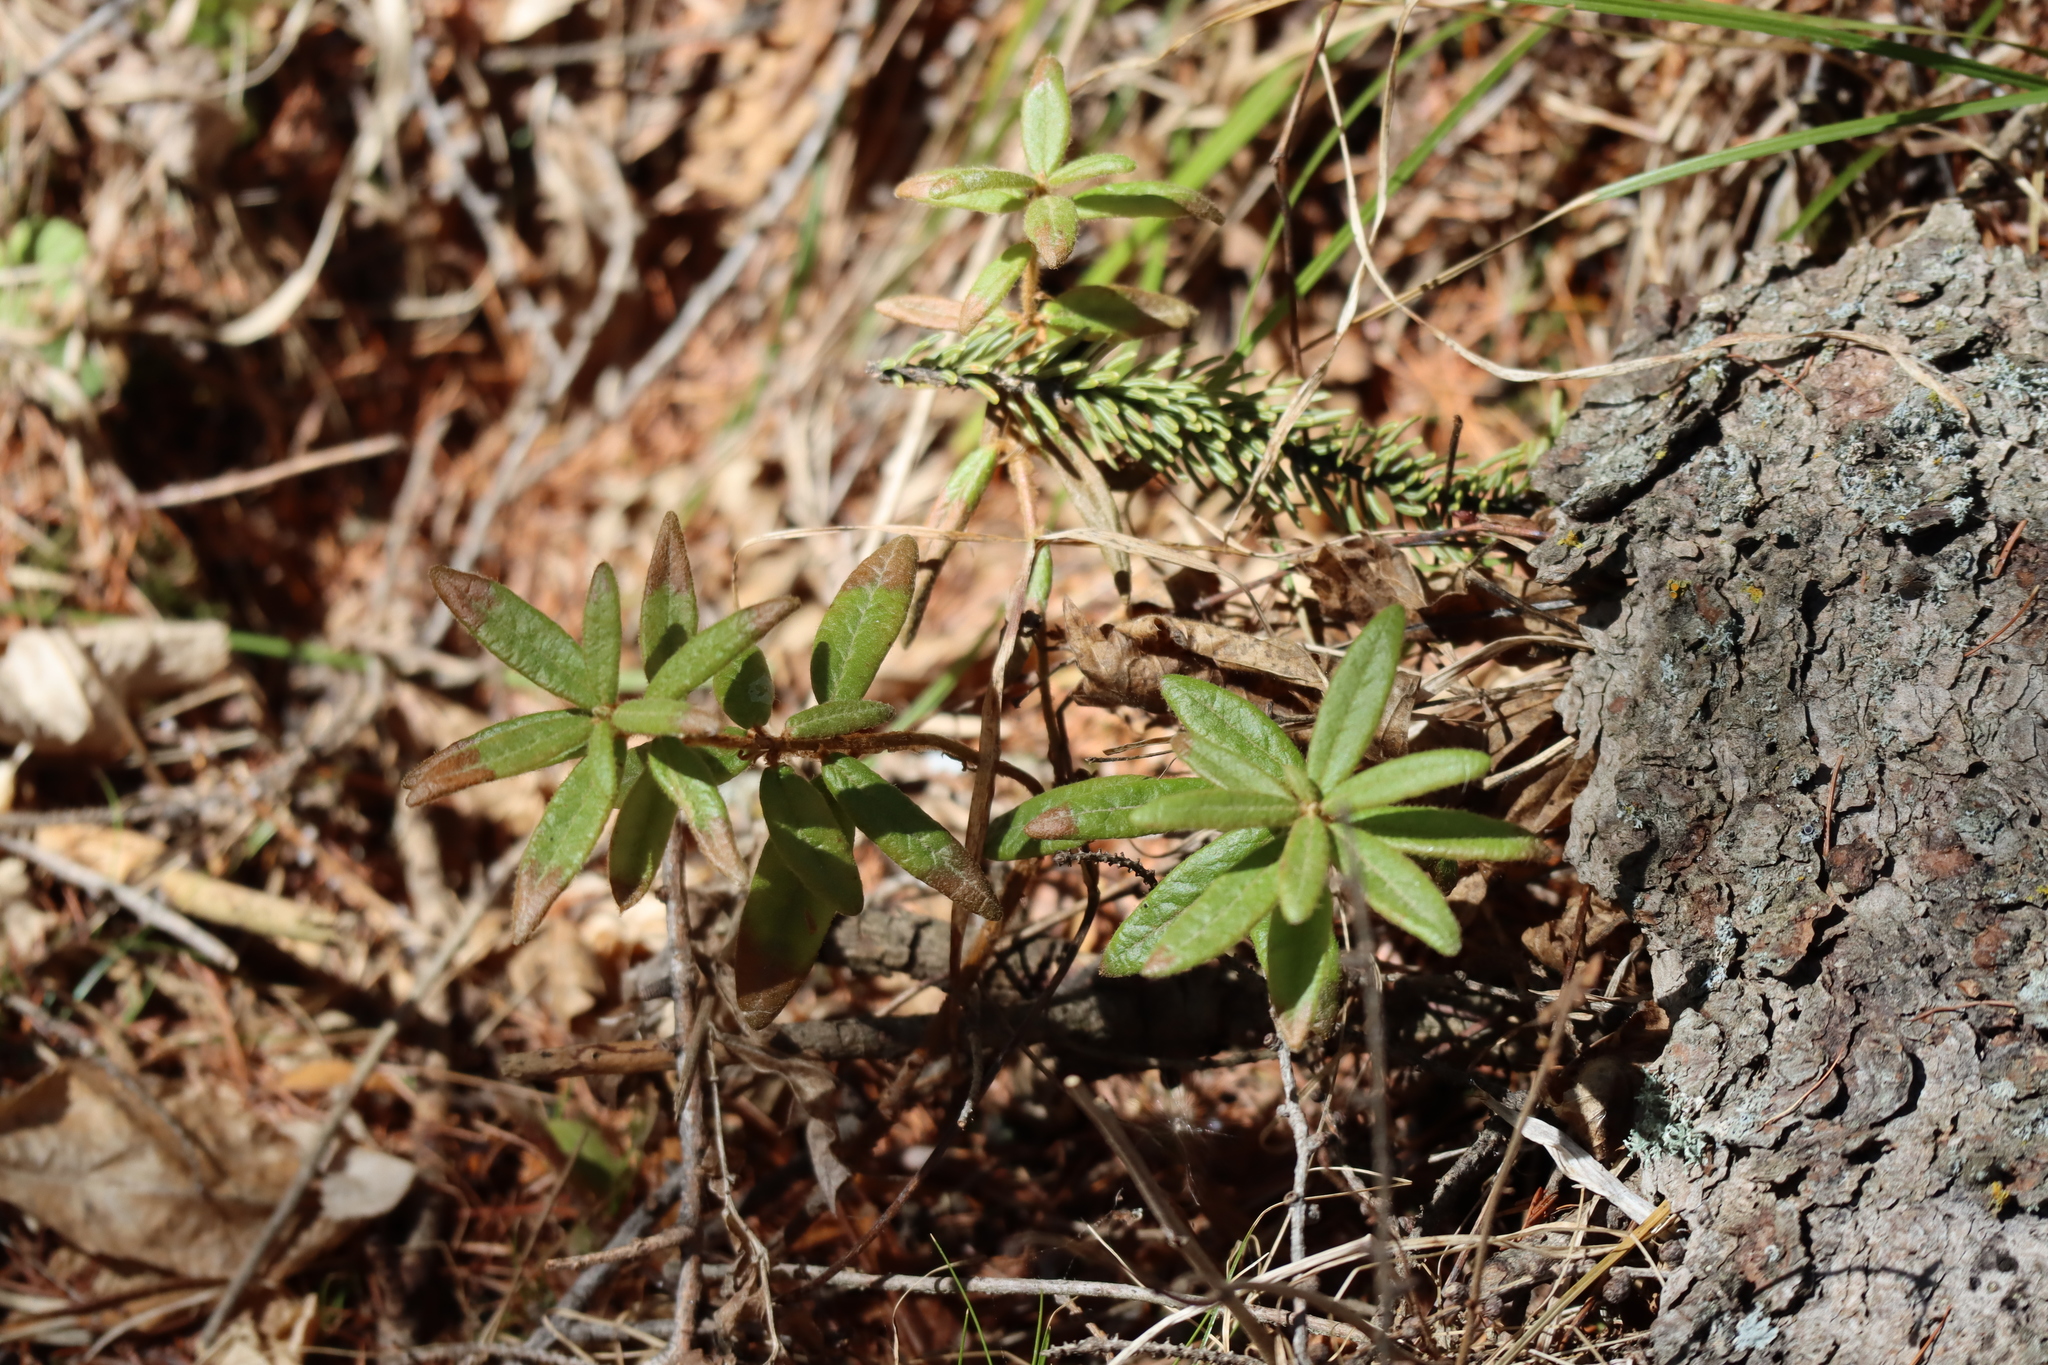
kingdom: Plantae
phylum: Tracheophyta
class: Magnoliopsida
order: Ericales
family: Ericaceae
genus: Rhododendron
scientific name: Rhododendron groenlandicum
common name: Bog labrador tea
